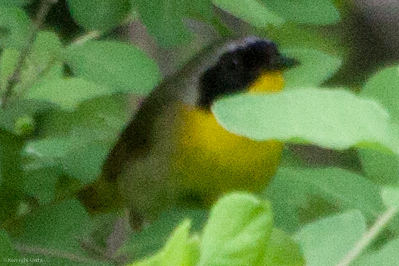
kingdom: Animalia
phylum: Chordata
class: Aves
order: Passeriformes
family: Parulidae
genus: Geothlypis
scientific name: Geothlypis trichas
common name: Common yellowthroat
